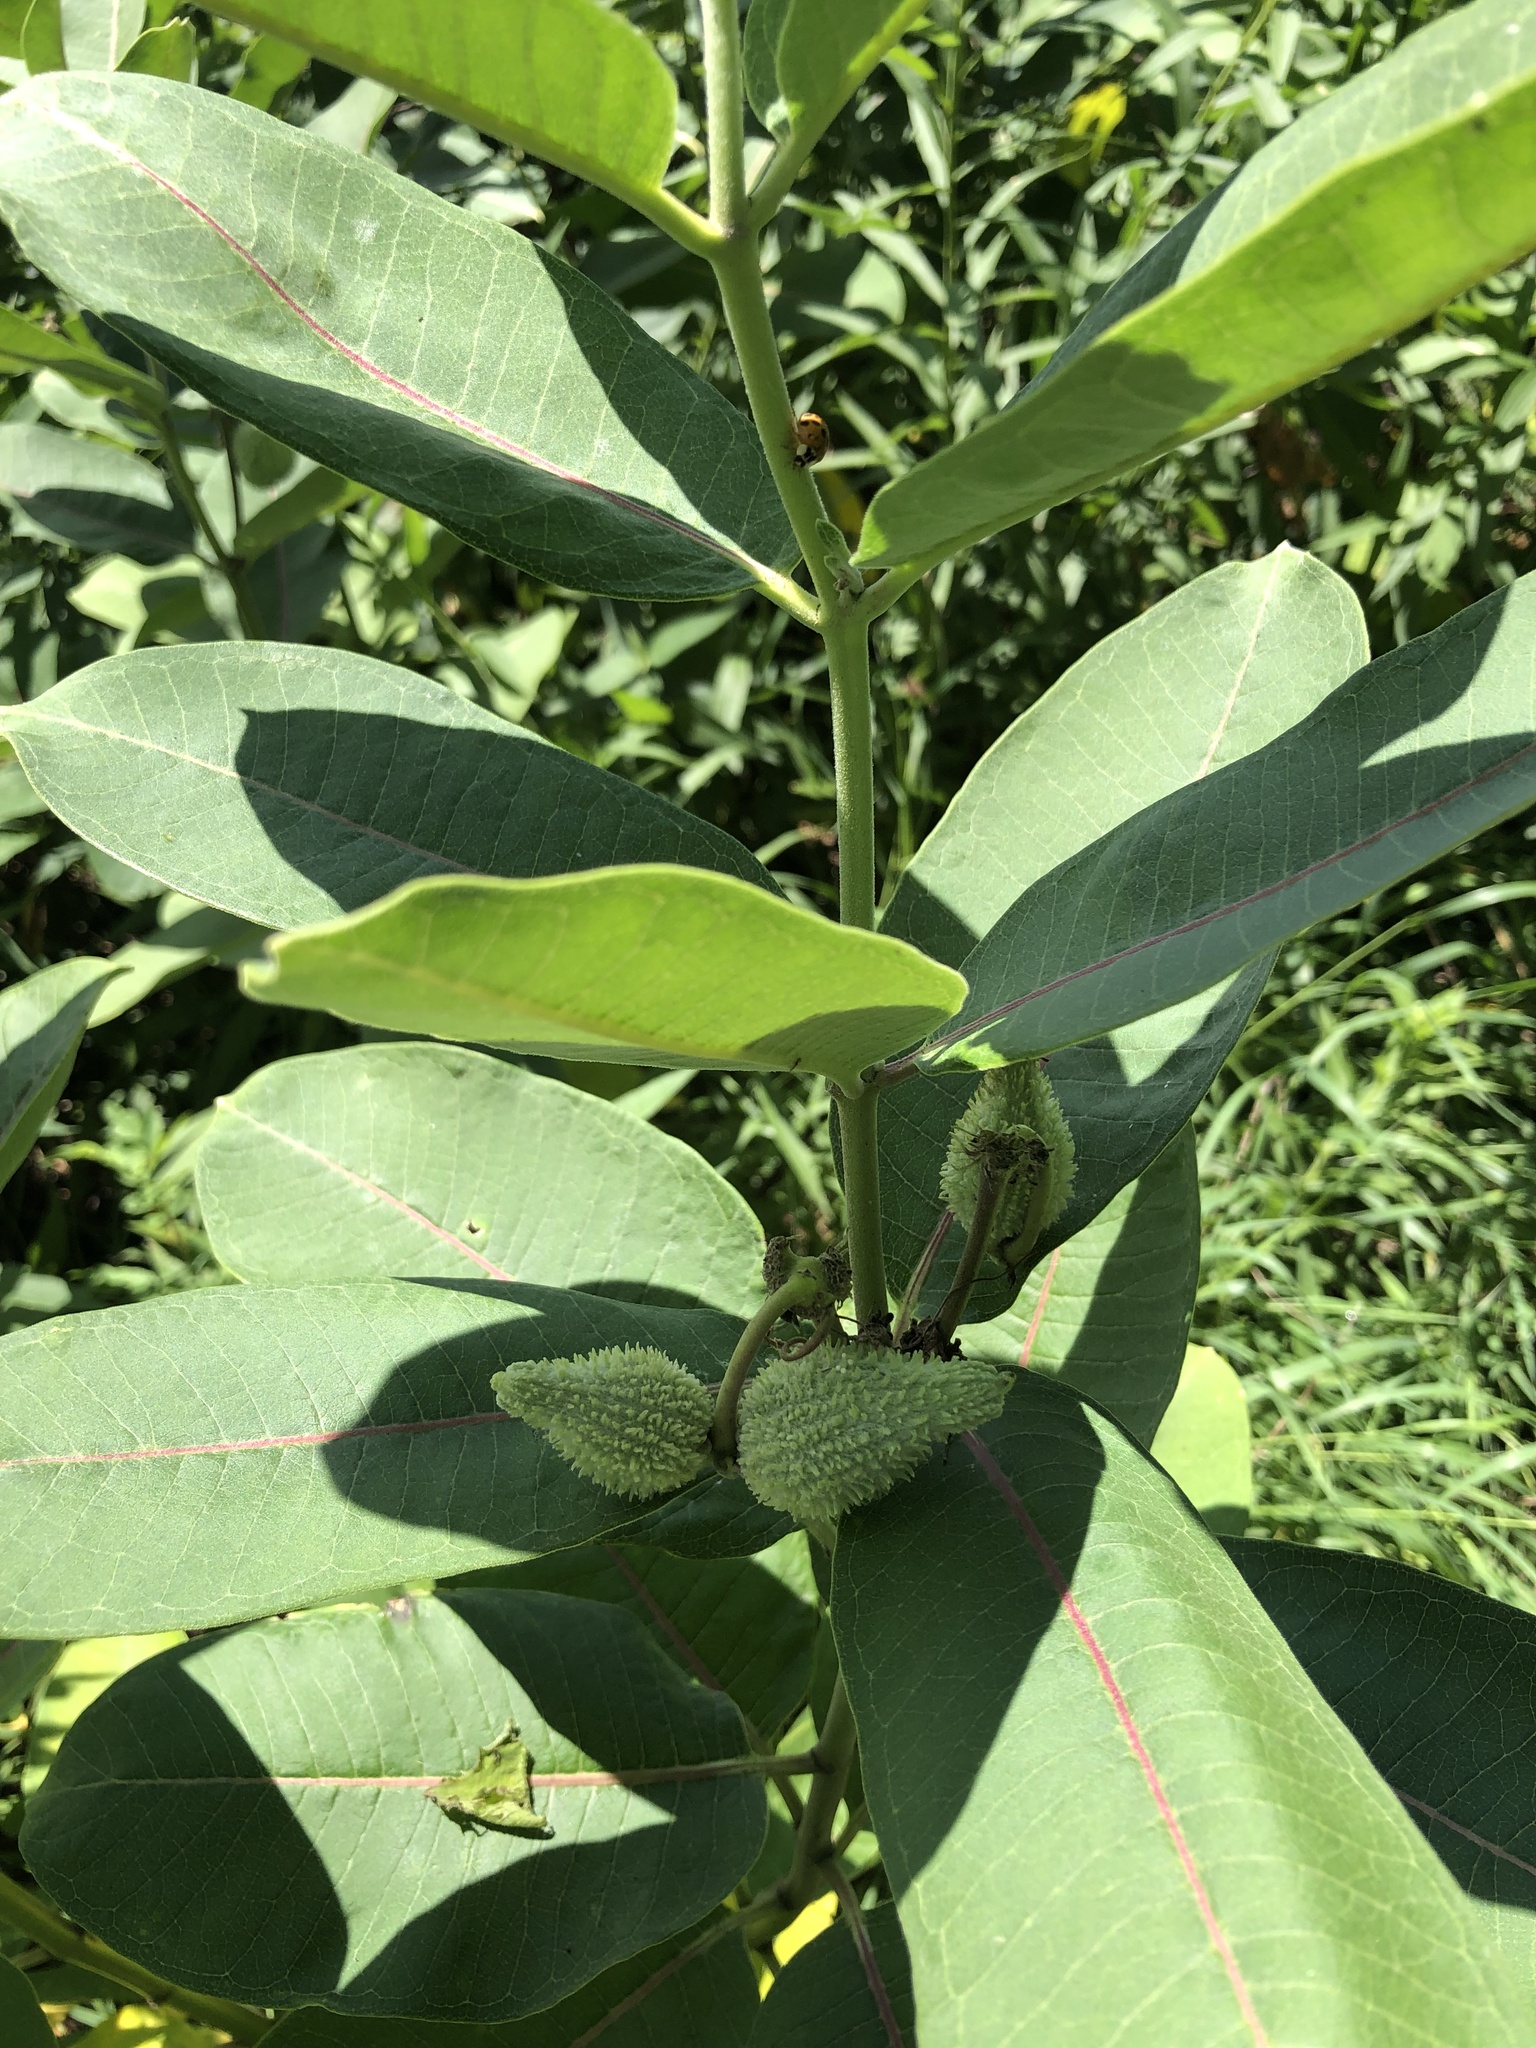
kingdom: Plantae
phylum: Tracheophyta
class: Magnoliopsida
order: Gentianales
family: Apocynaceae
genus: Asclepias
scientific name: Asclepias syriaca
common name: Common milkweed
